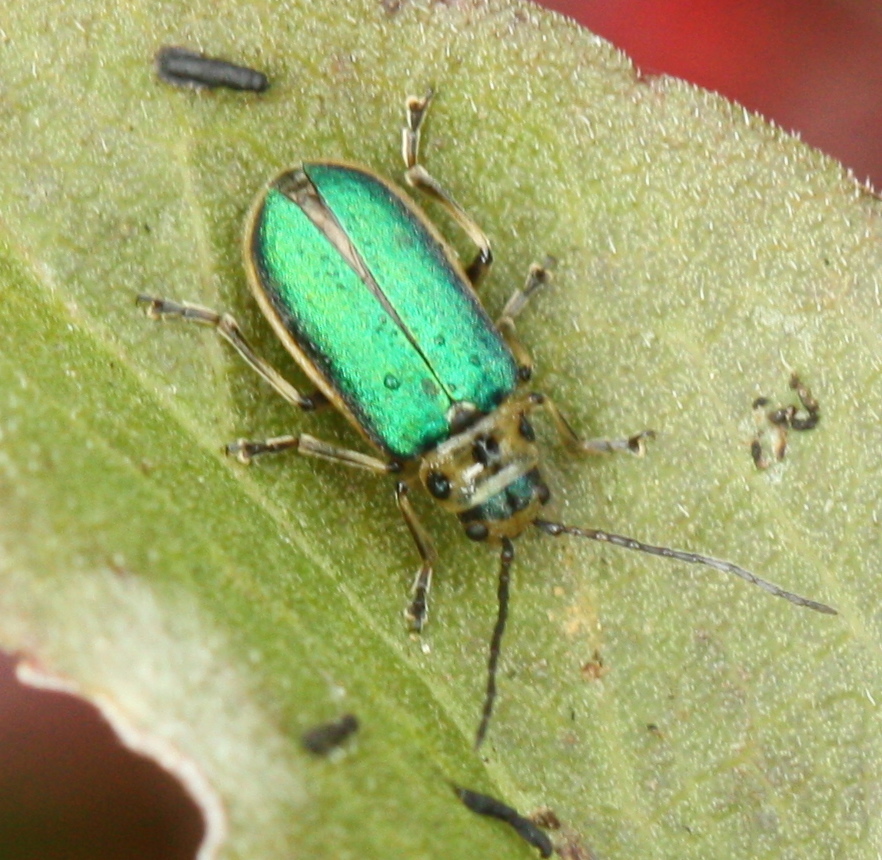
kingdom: Animalia
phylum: Arthropoda
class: Insecta
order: Coleoptera
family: Chrysomelidae
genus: Trirhabda
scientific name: Trirhabda flavolimbata
